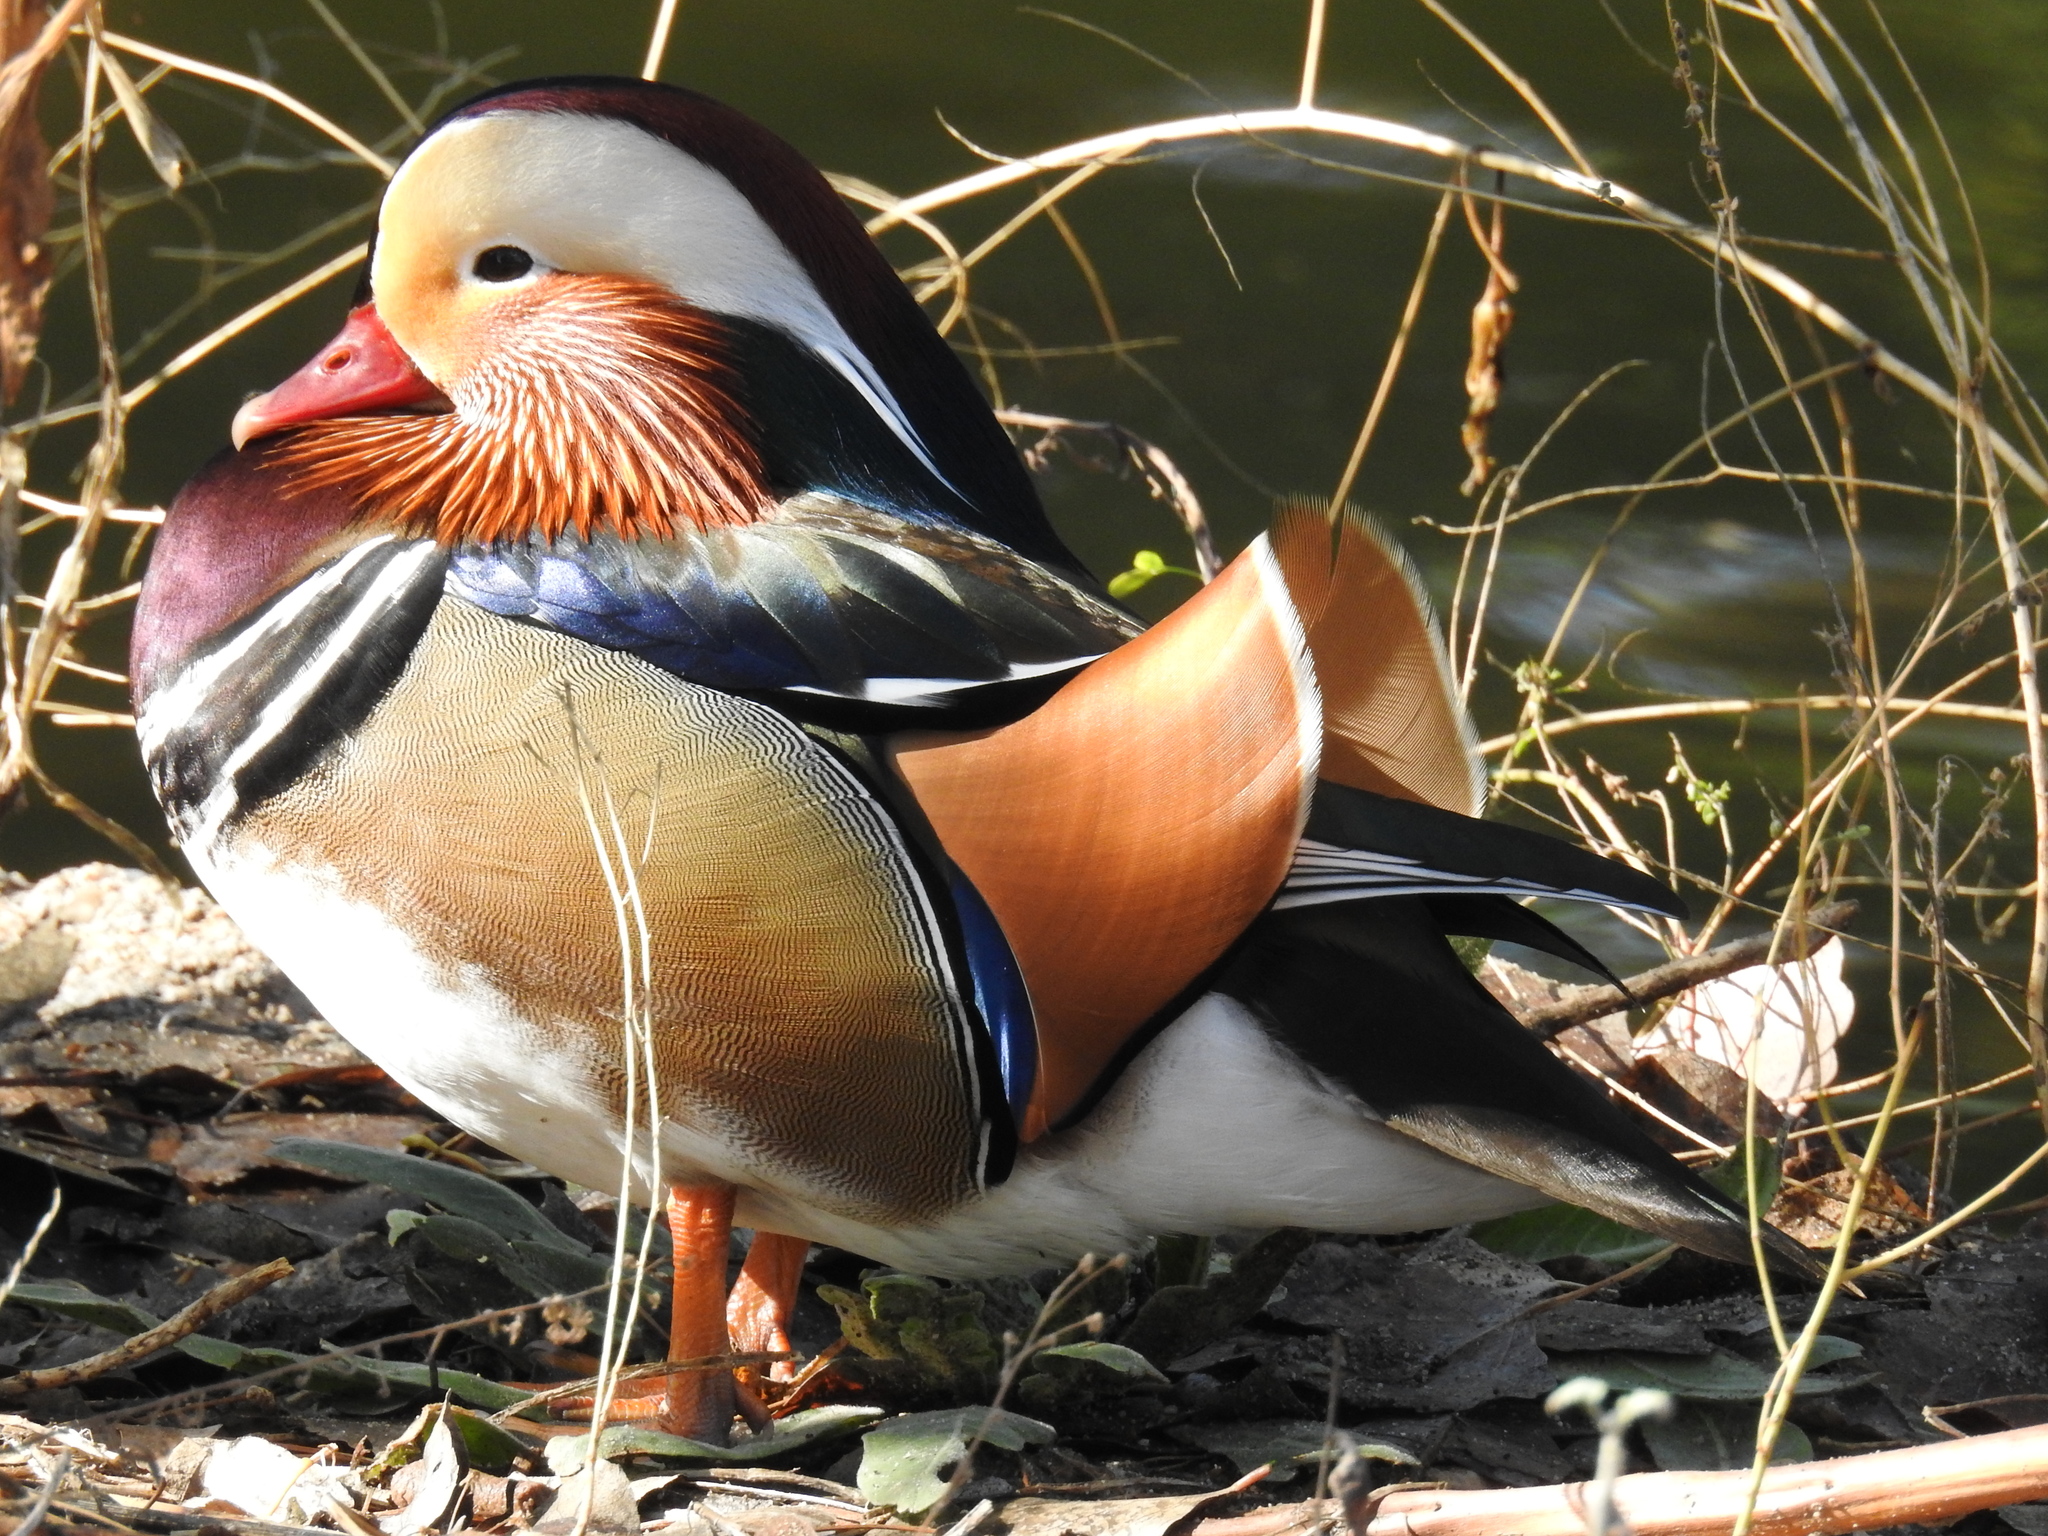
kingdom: Animalia
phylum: Chordata
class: Aves
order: Anseriformes
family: Anatidae
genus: Aix
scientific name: Aix galericulata
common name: Mandarin duck
